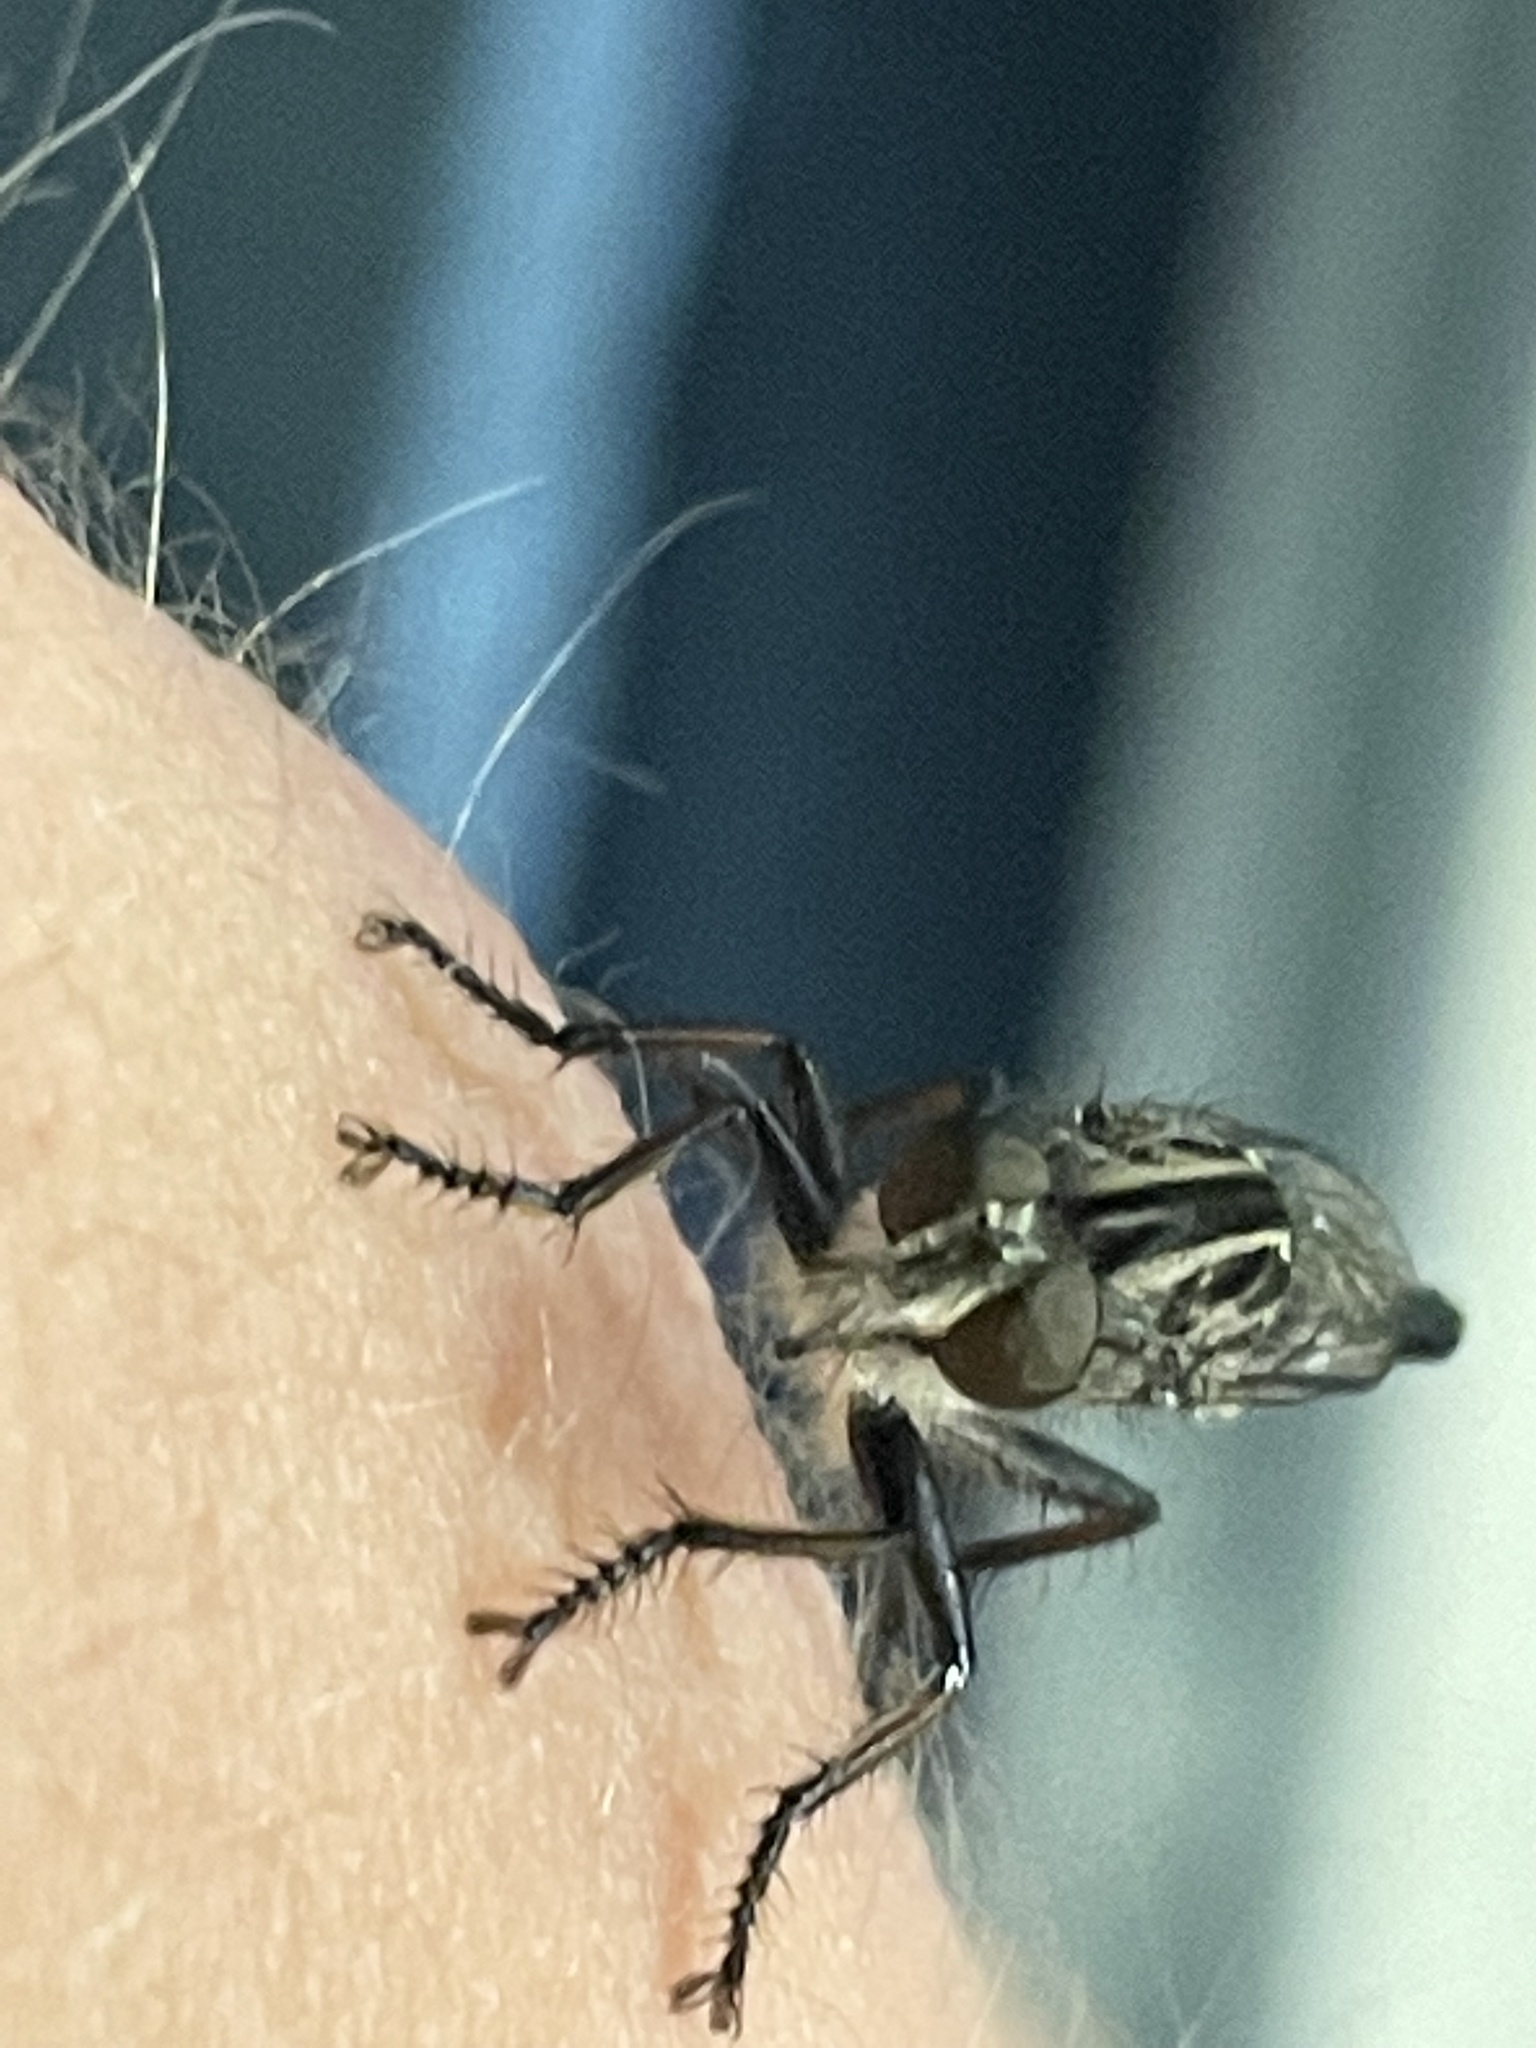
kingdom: Animalia
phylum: Arthropoda
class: Insecta
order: Diptera
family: Asilidae
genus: Efferia
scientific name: Efferia aestuans
